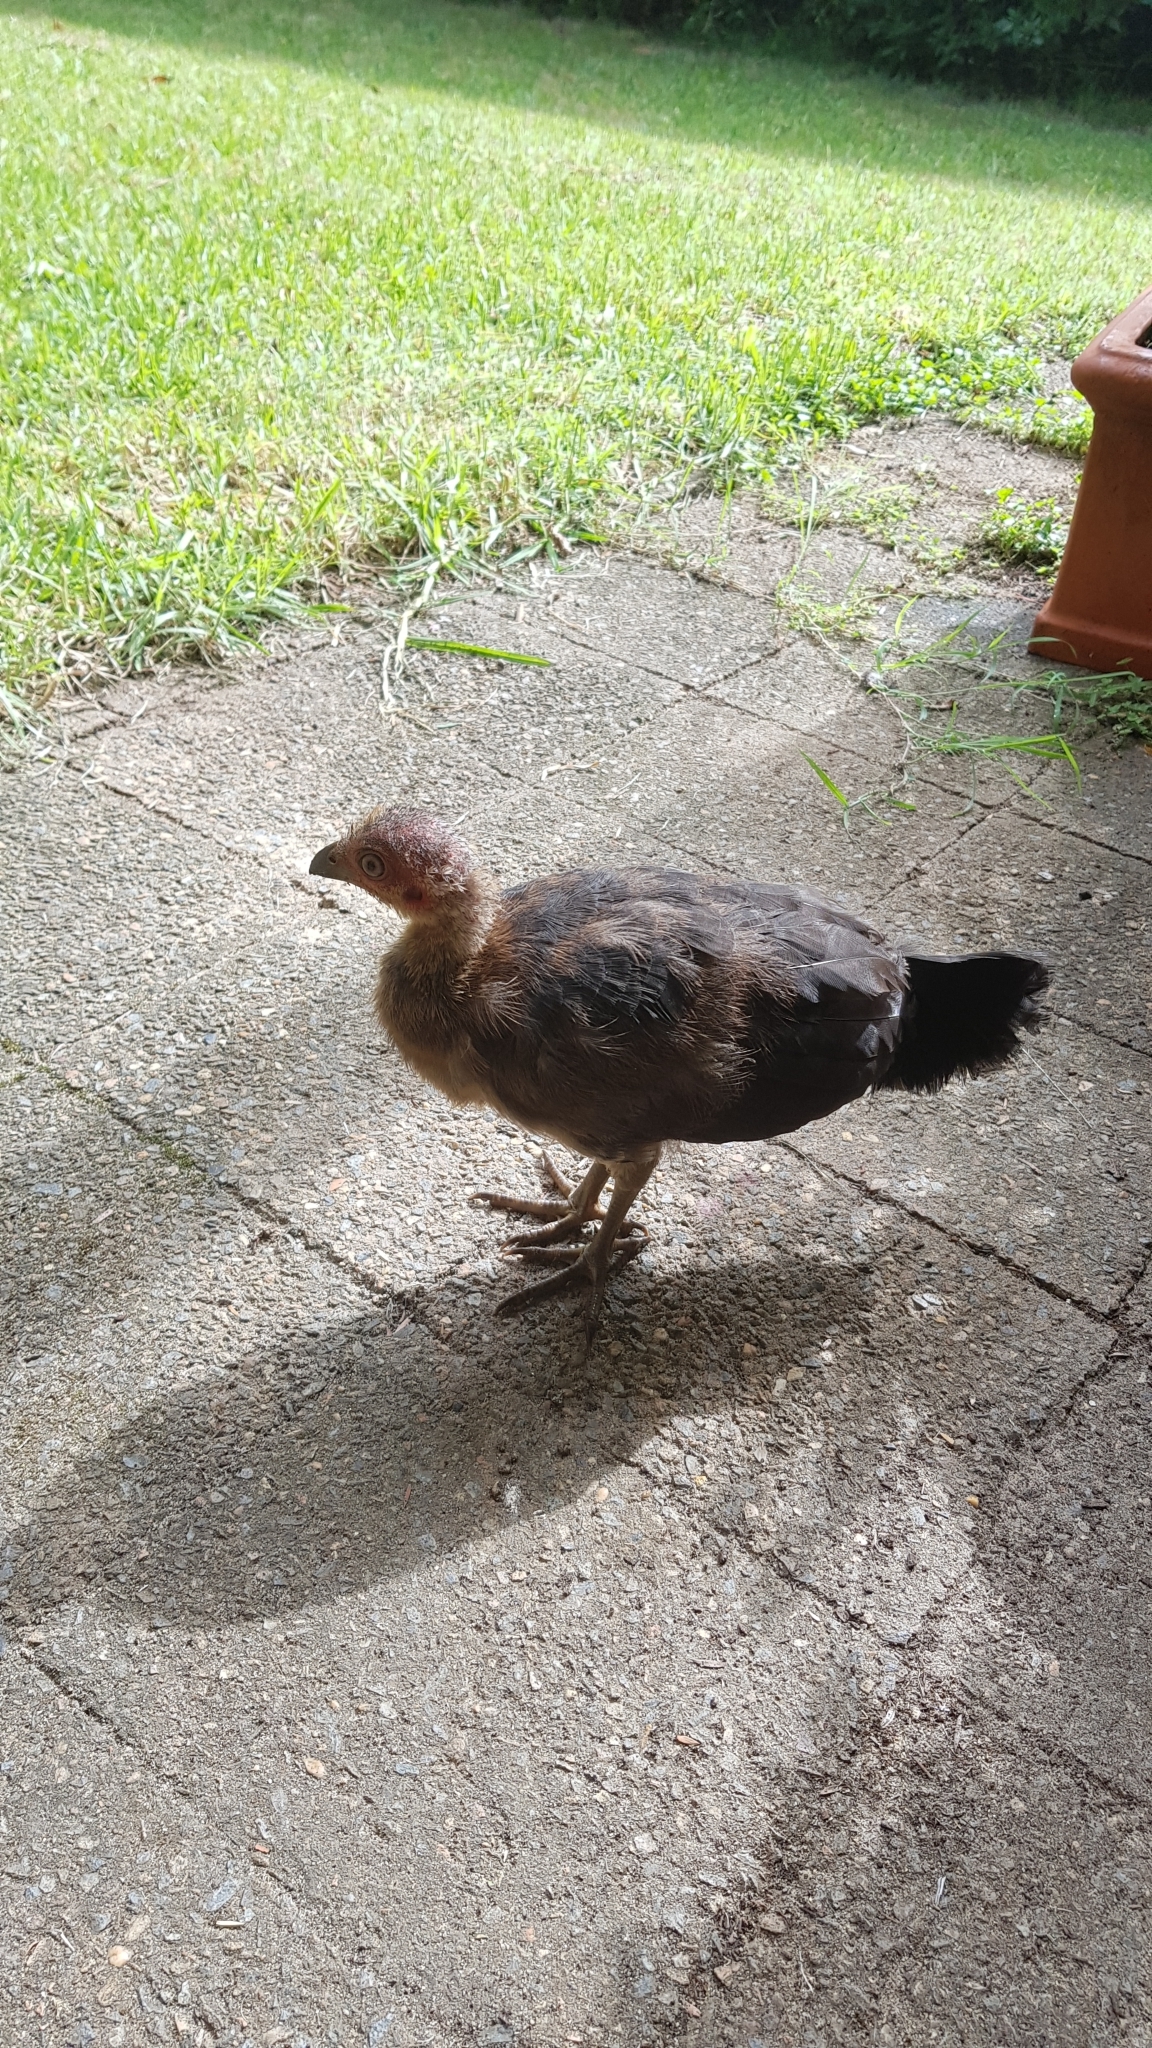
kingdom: Animalia
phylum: Chordata
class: Aves
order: Galliformes
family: Megapodiidae
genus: Alectura
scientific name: Alectura lathami
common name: Australian brushturkey
